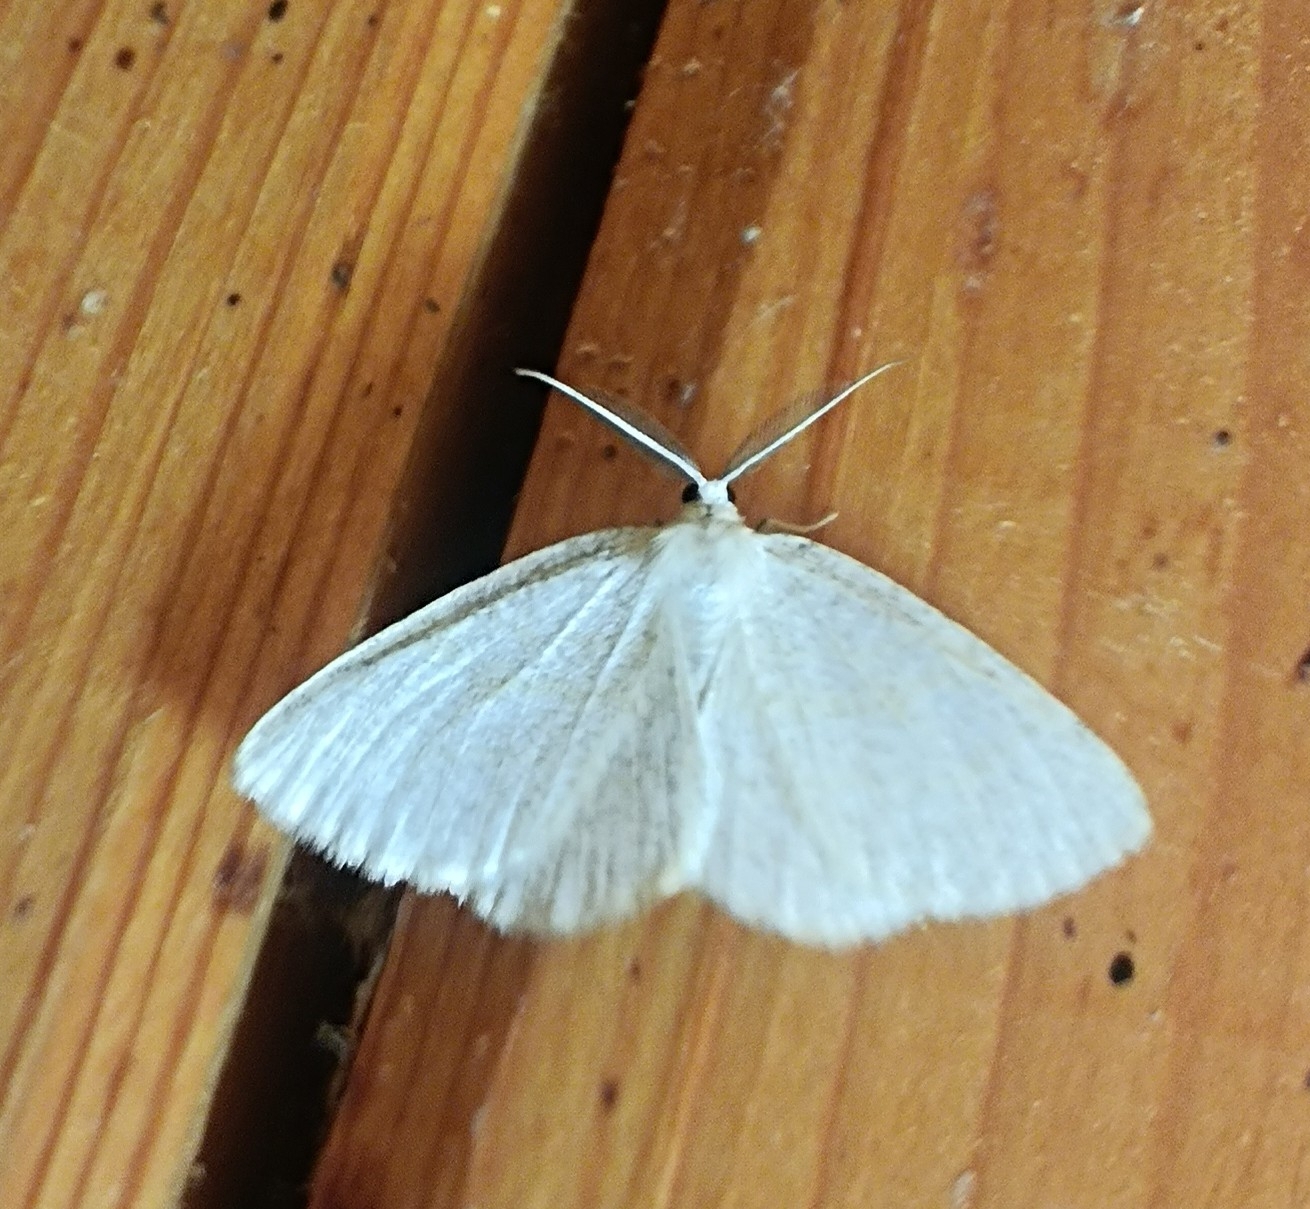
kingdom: Animalia
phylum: Arthropoda
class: Insecta
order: Lepidoptera
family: Geometridae
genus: Cabera
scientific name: Cabera exanthemata
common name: Common wave
